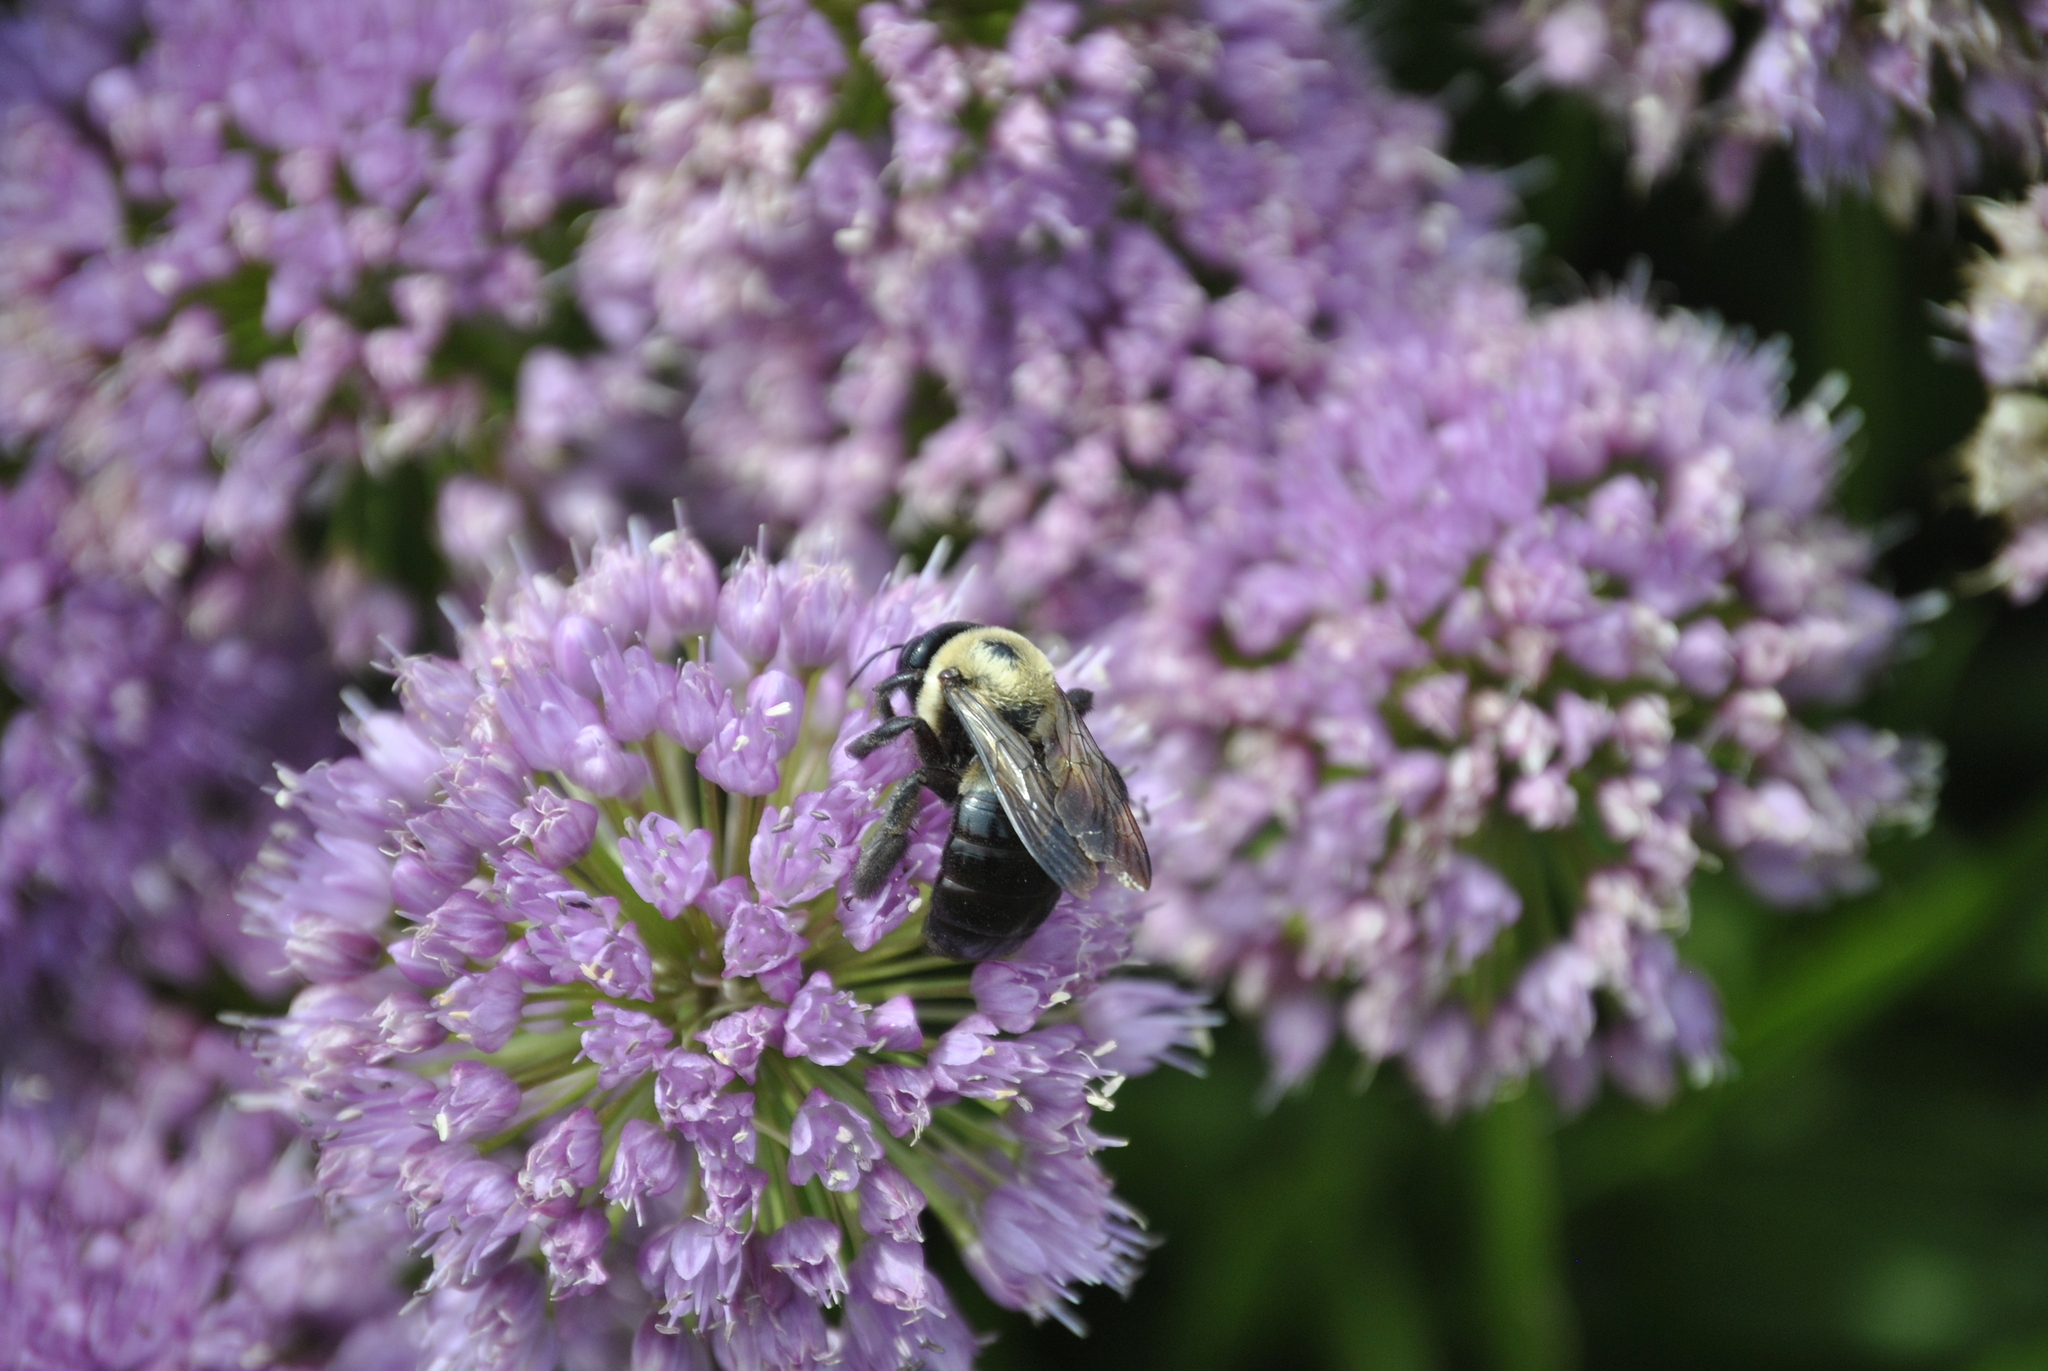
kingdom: Animalia
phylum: Arthropoda
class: Insecta
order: Hymenoptera
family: Apidae
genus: Xylocopa
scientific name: Xylocopa virginica
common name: Carpenter bee
